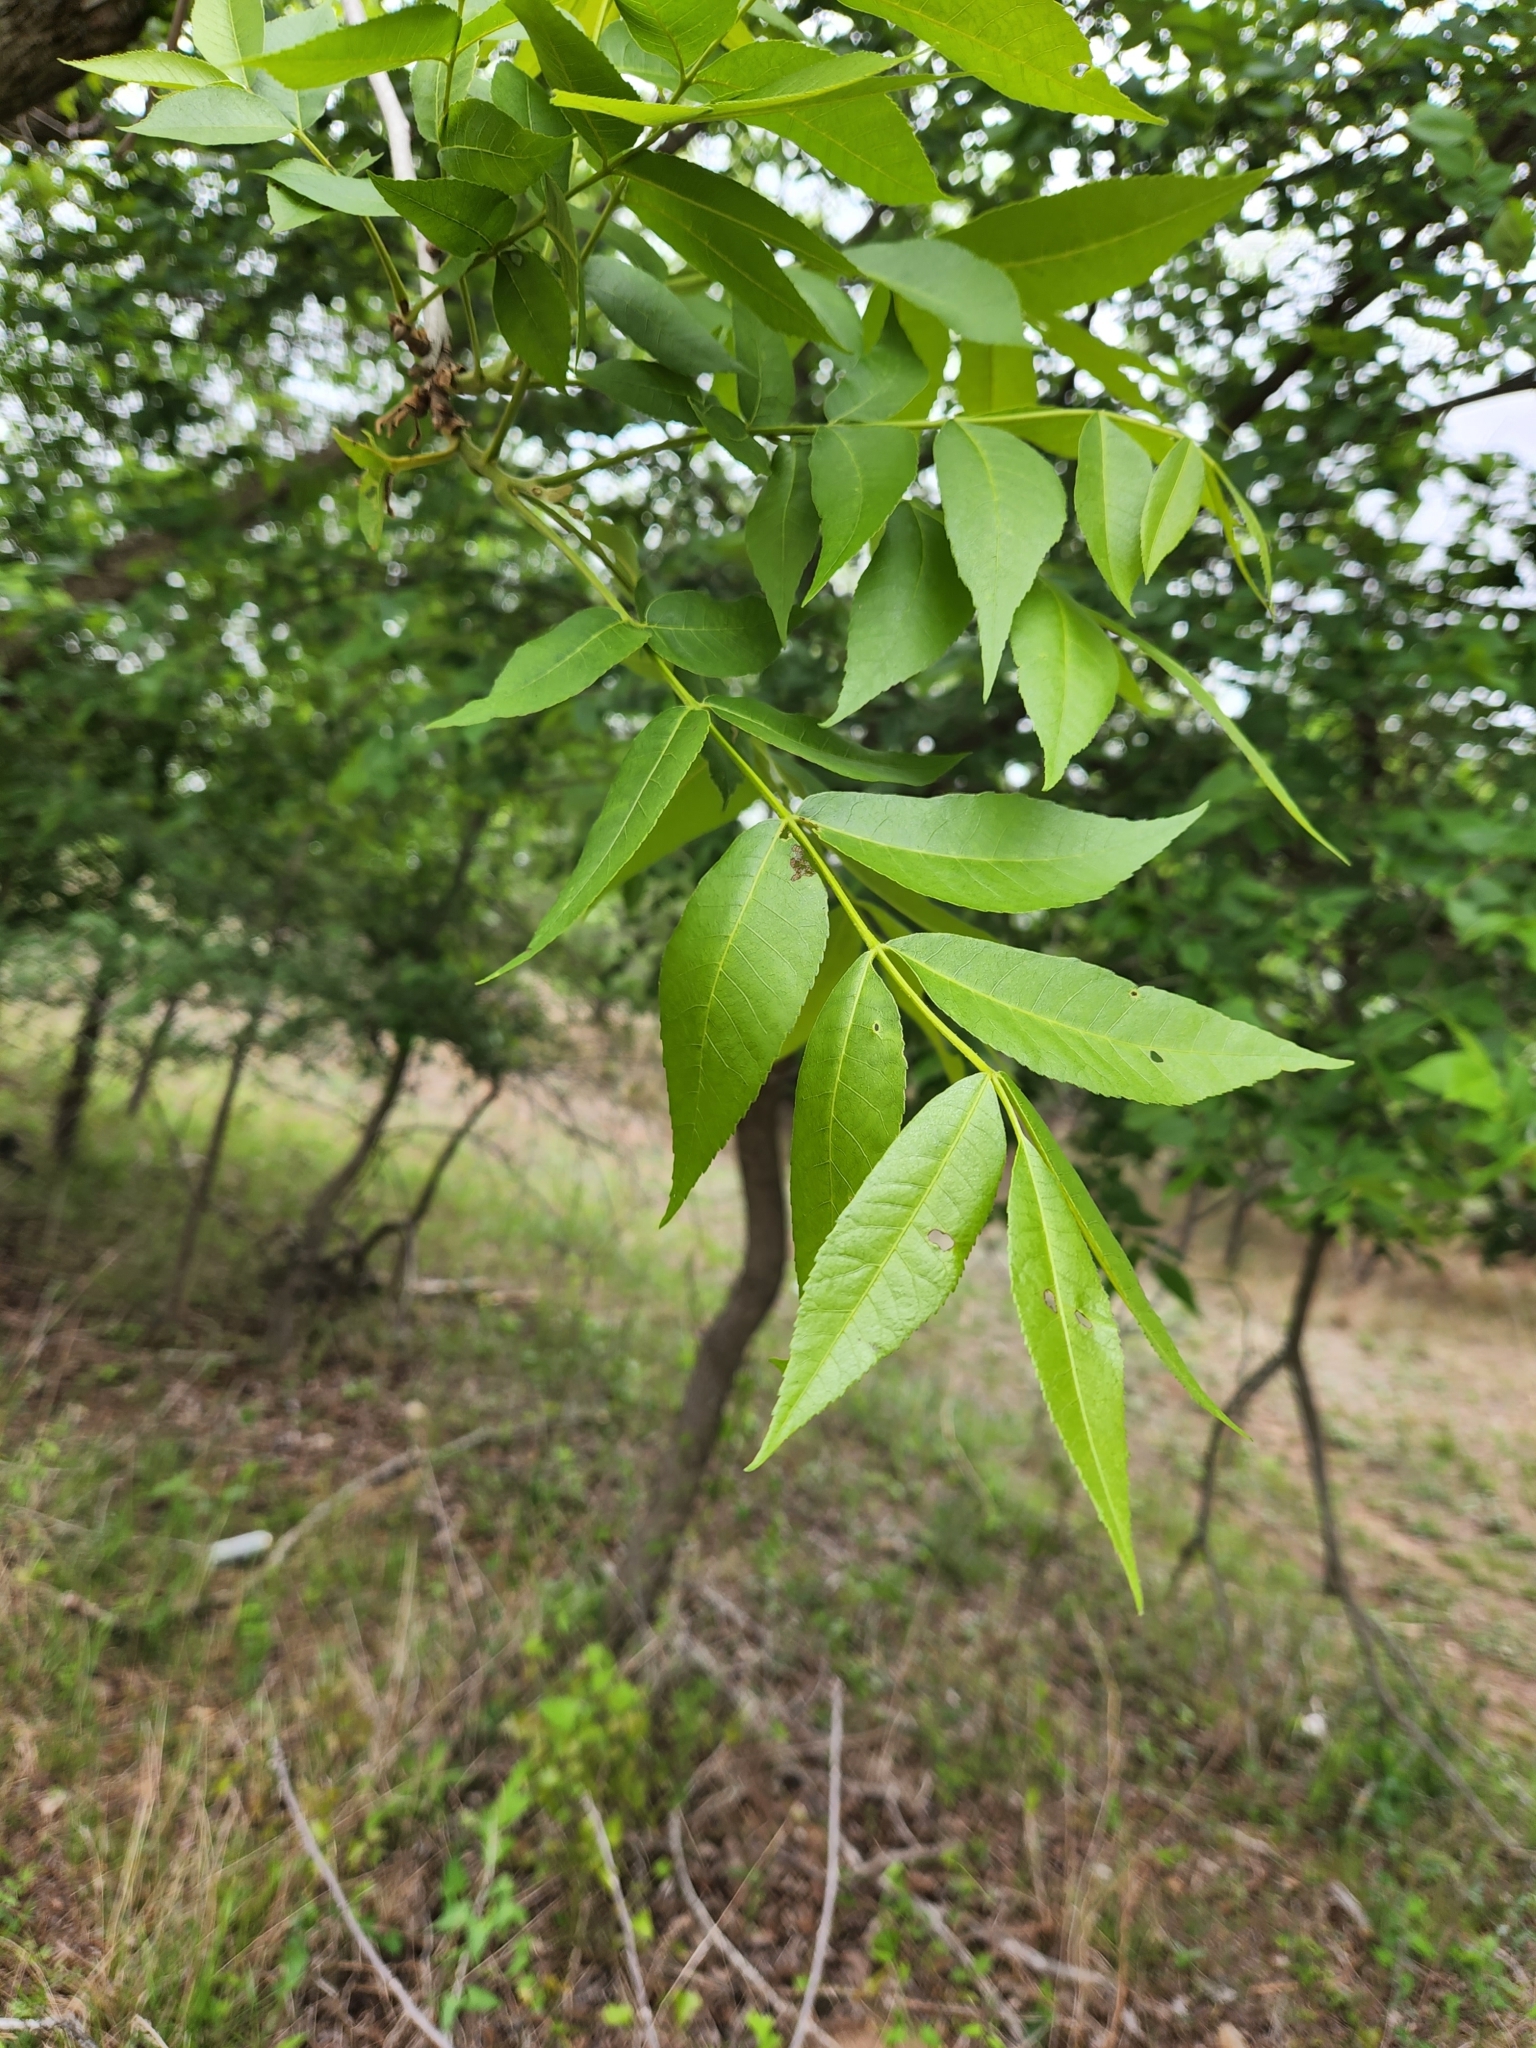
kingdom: Plantae
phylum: Tracheophyta
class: Magnoliopsida
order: Fagales
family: Juglandaceae
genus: Carya
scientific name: Carya illinoinensis
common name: Pecan
